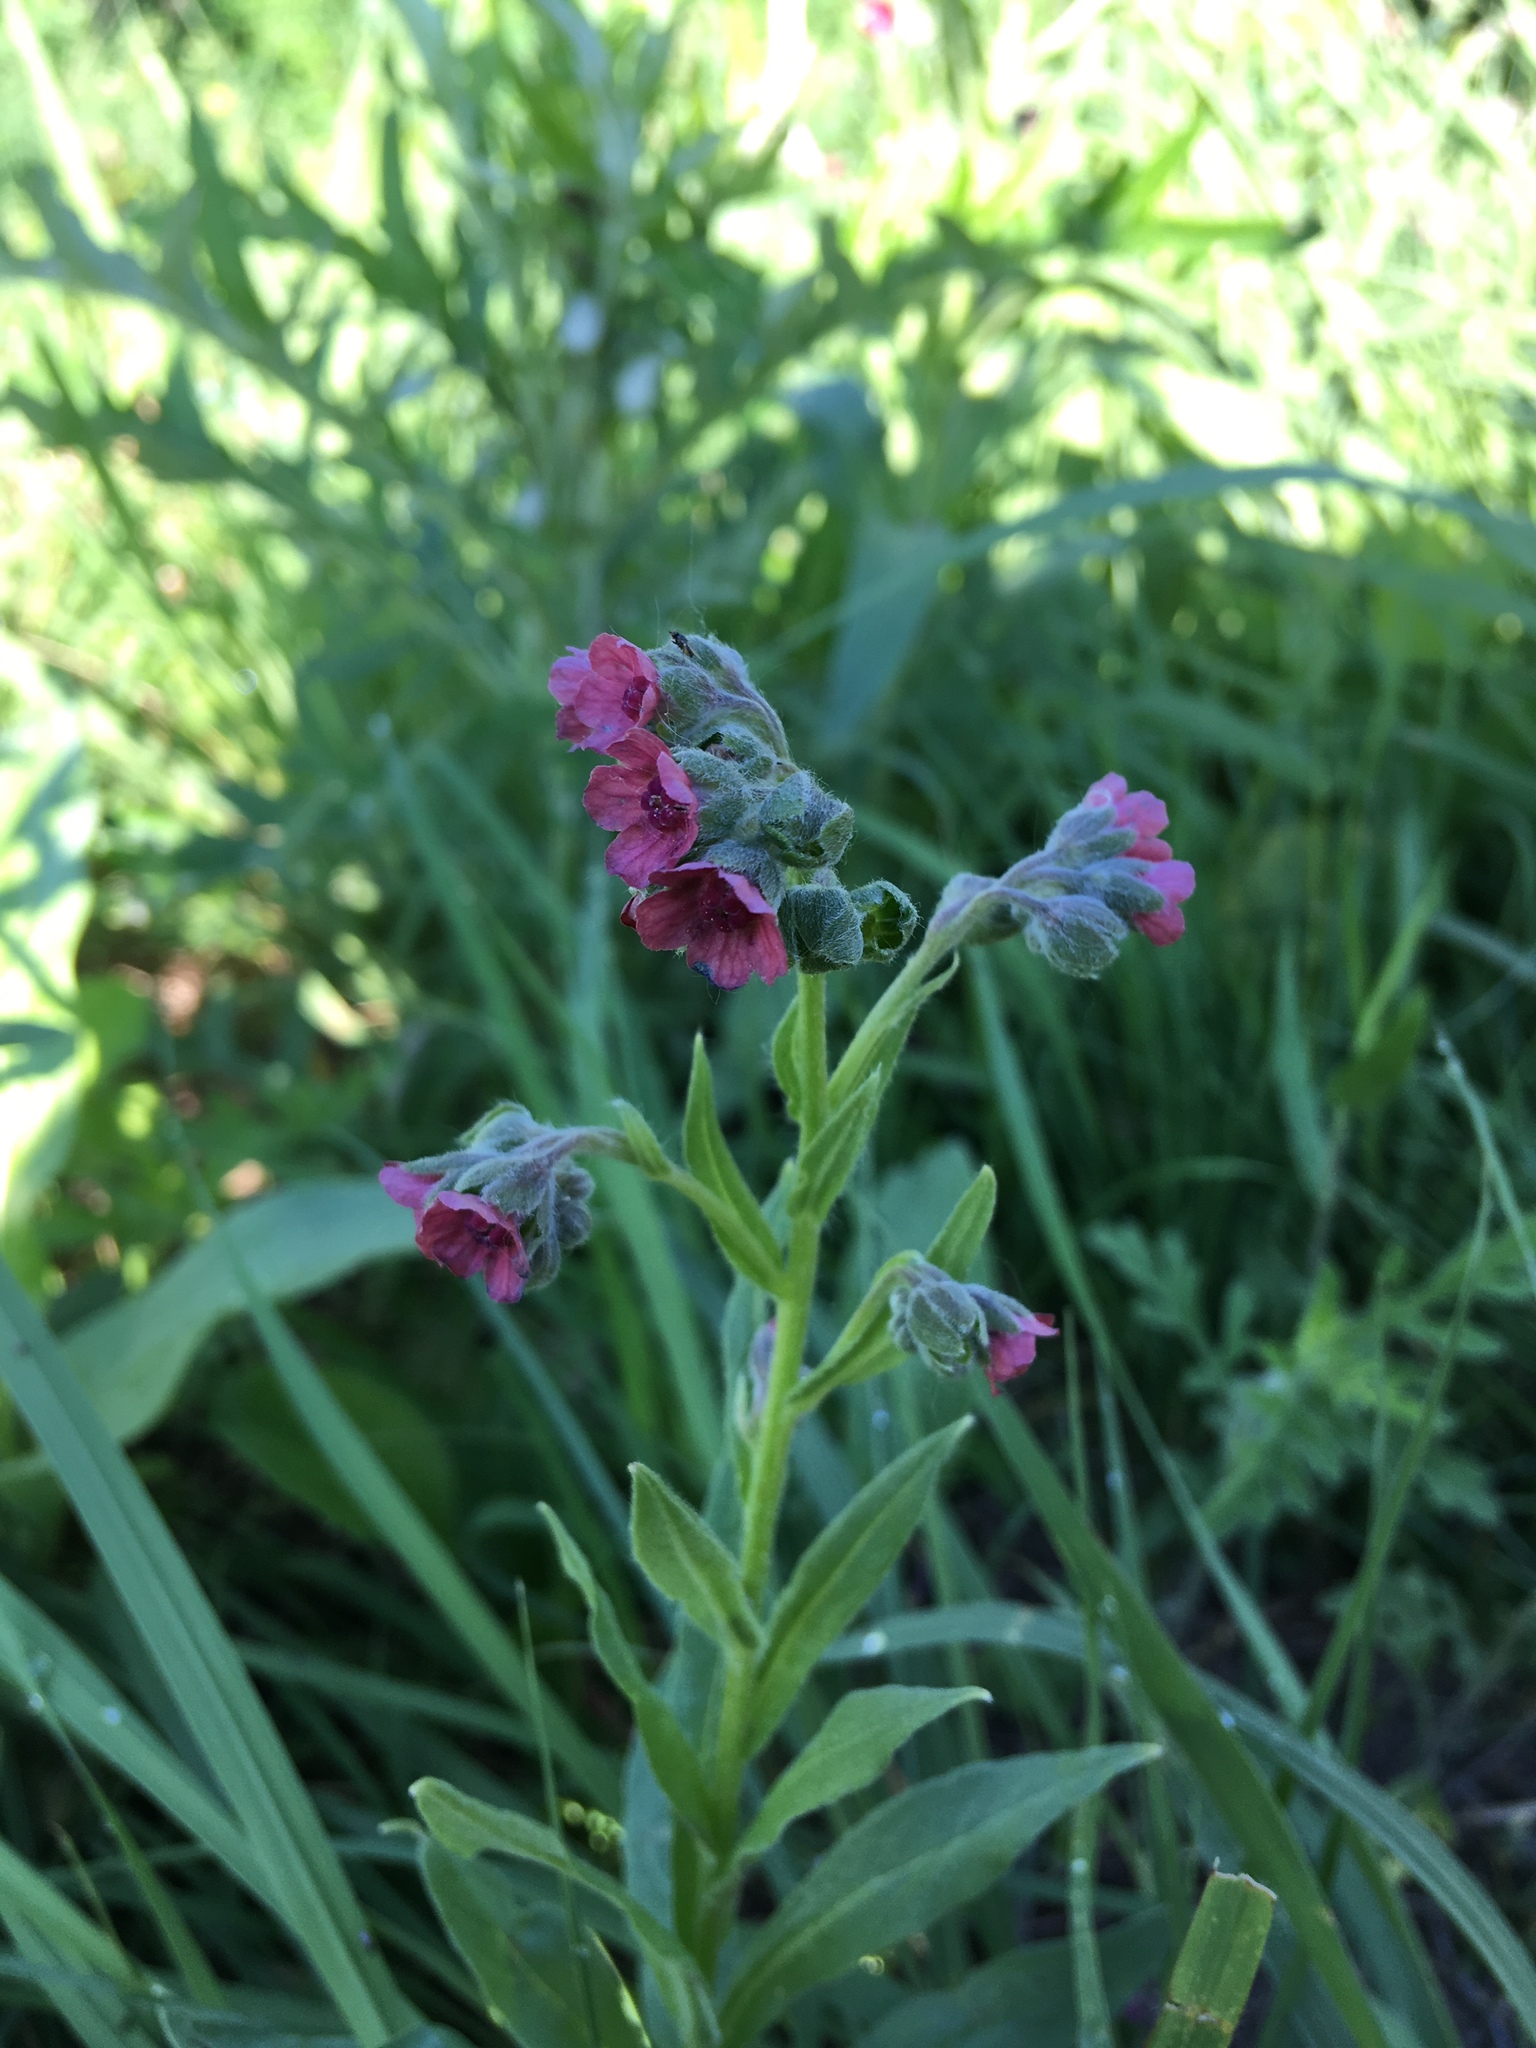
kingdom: Plantae
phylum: Tracheophyta
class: Magnoliopsida
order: Boraginales
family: Boraginaceae
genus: Cynoglossum
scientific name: Cynoglossum officinale
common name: Hound's-tongue
